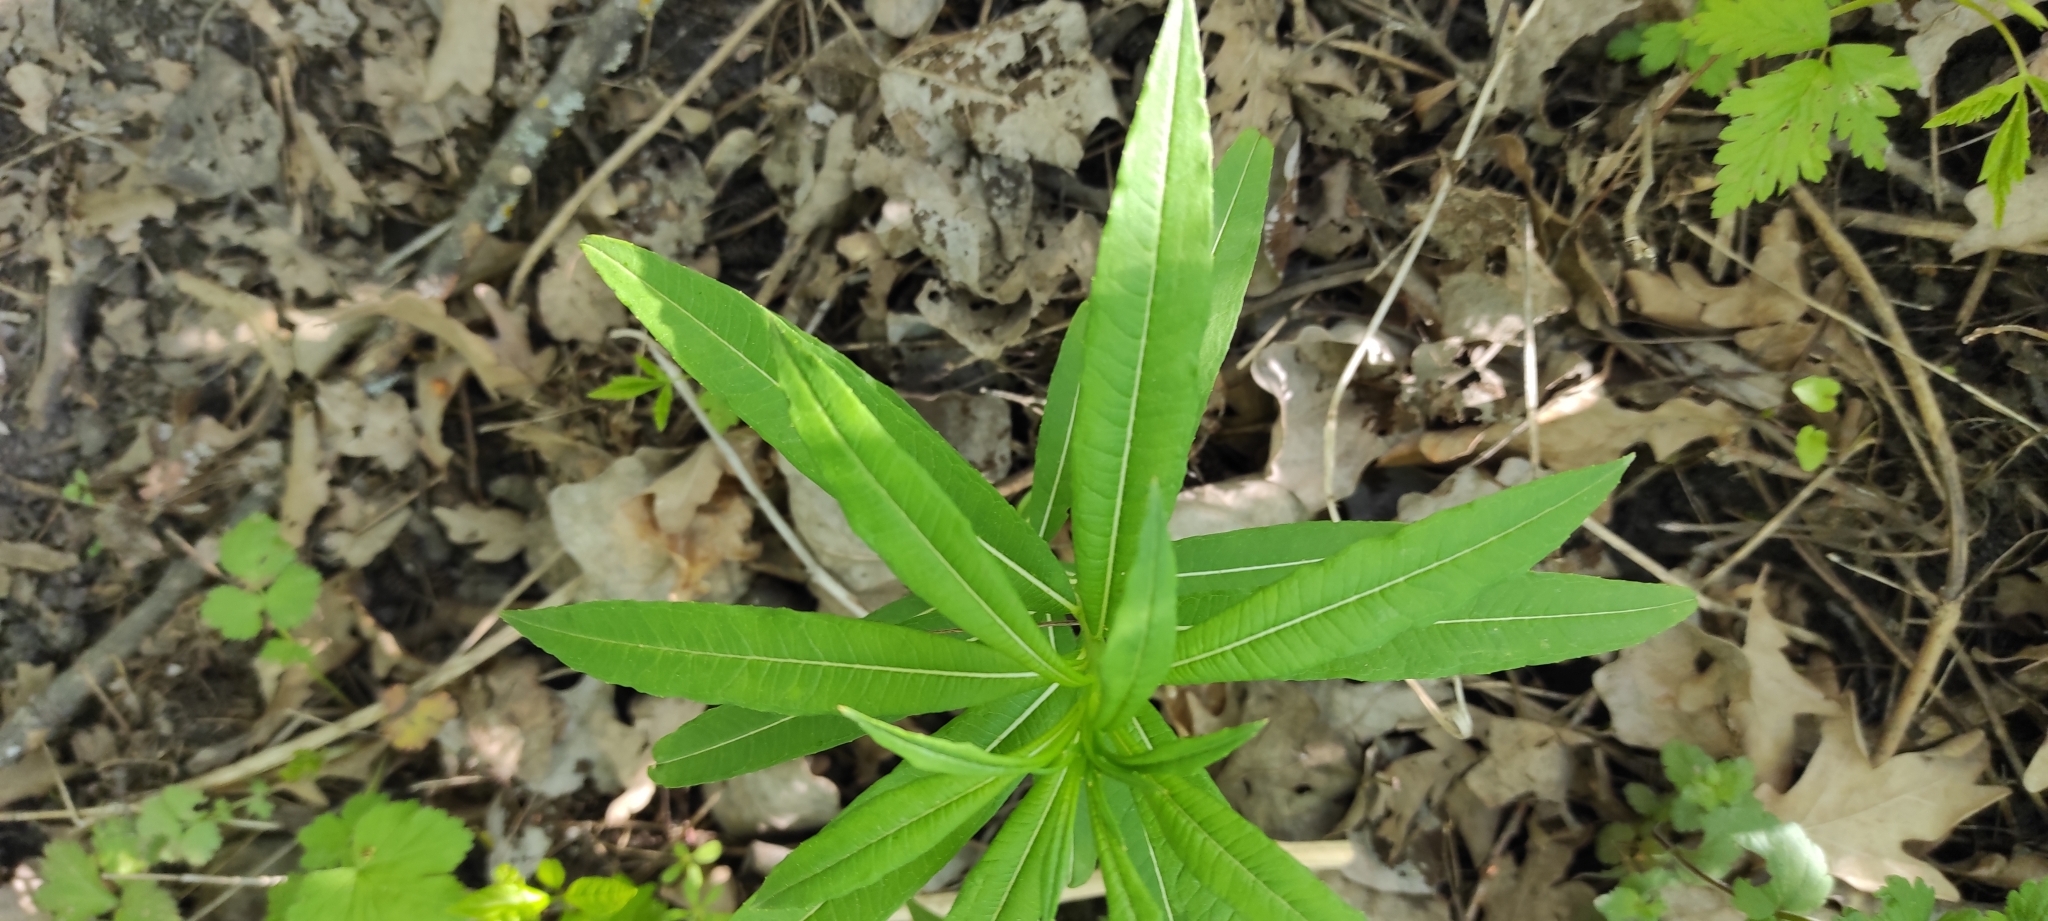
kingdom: Plantae
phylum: Tracheophyta
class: Magnoliopsida
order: Myrtales
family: Onagraceae
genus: Chamaenerion
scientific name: Chamaenerion angustifolium
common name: Fireweed
